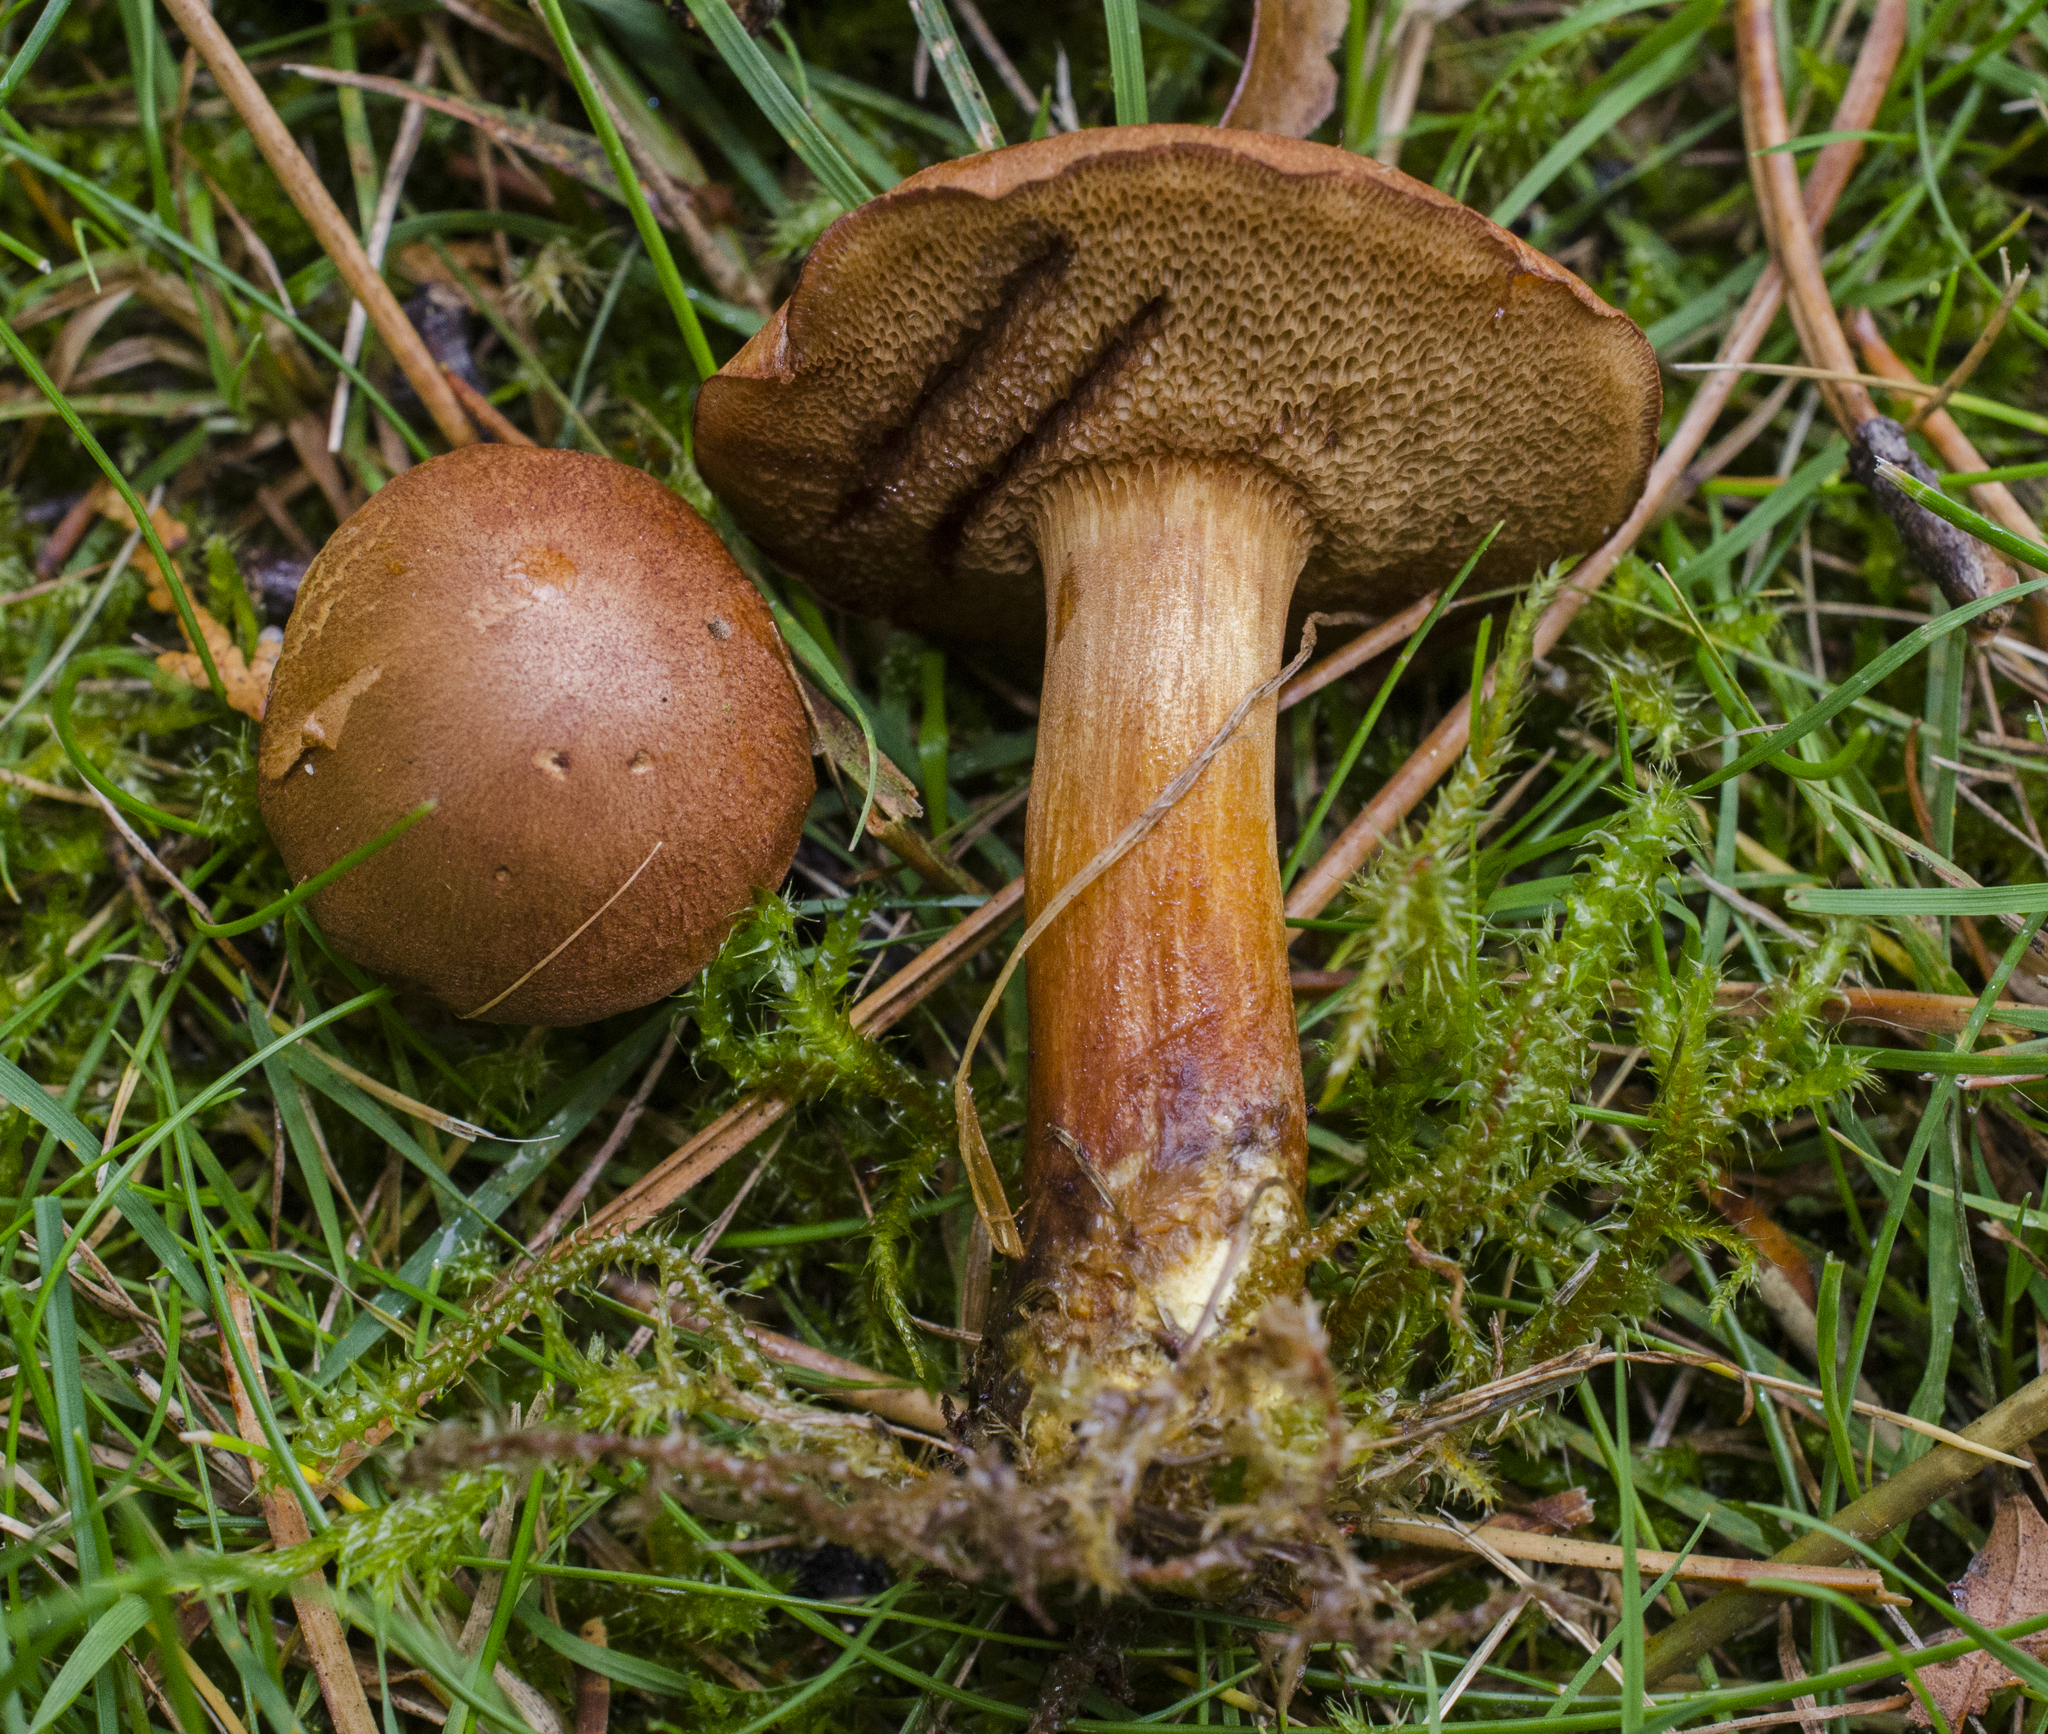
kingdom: Fungi
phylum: Basidiomycota
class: Agaricomycetes
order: Boletales
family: Boletaceae
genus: Chalciporus
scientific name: Chalciporus piperatus
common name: Peppery bolete
